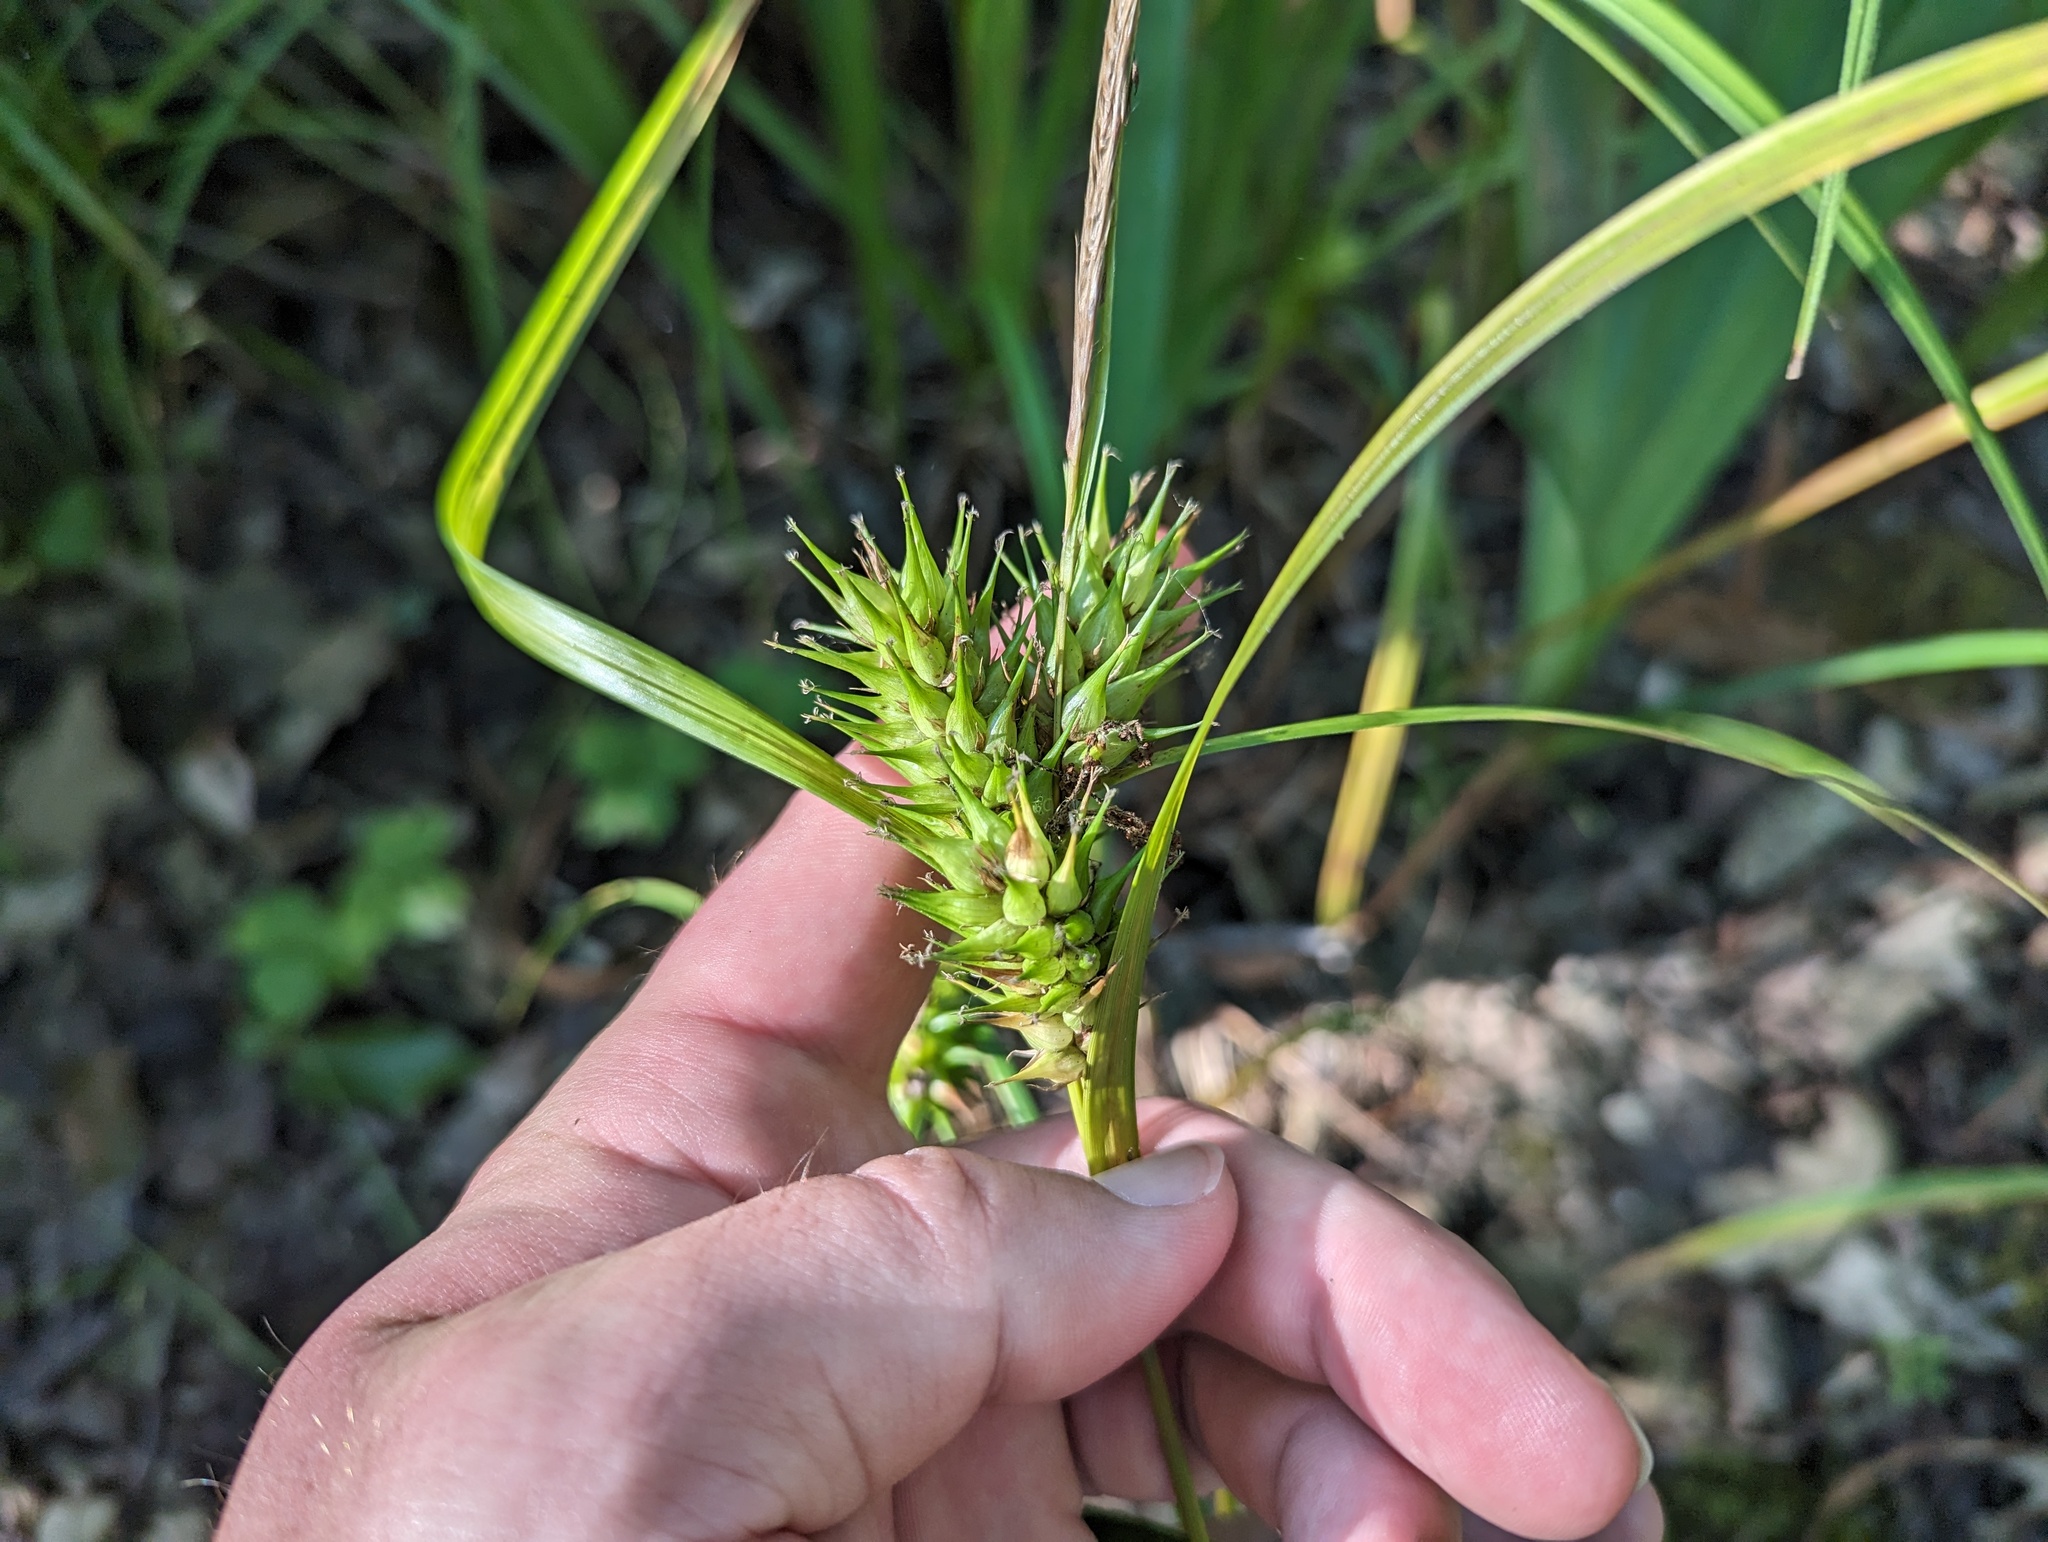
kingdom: Plantae
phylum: Tracheophyta
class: Liliopsida
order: Poales
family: Cyperaceae
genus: Carex
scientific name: Carex lupulina
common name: Hop sedge
